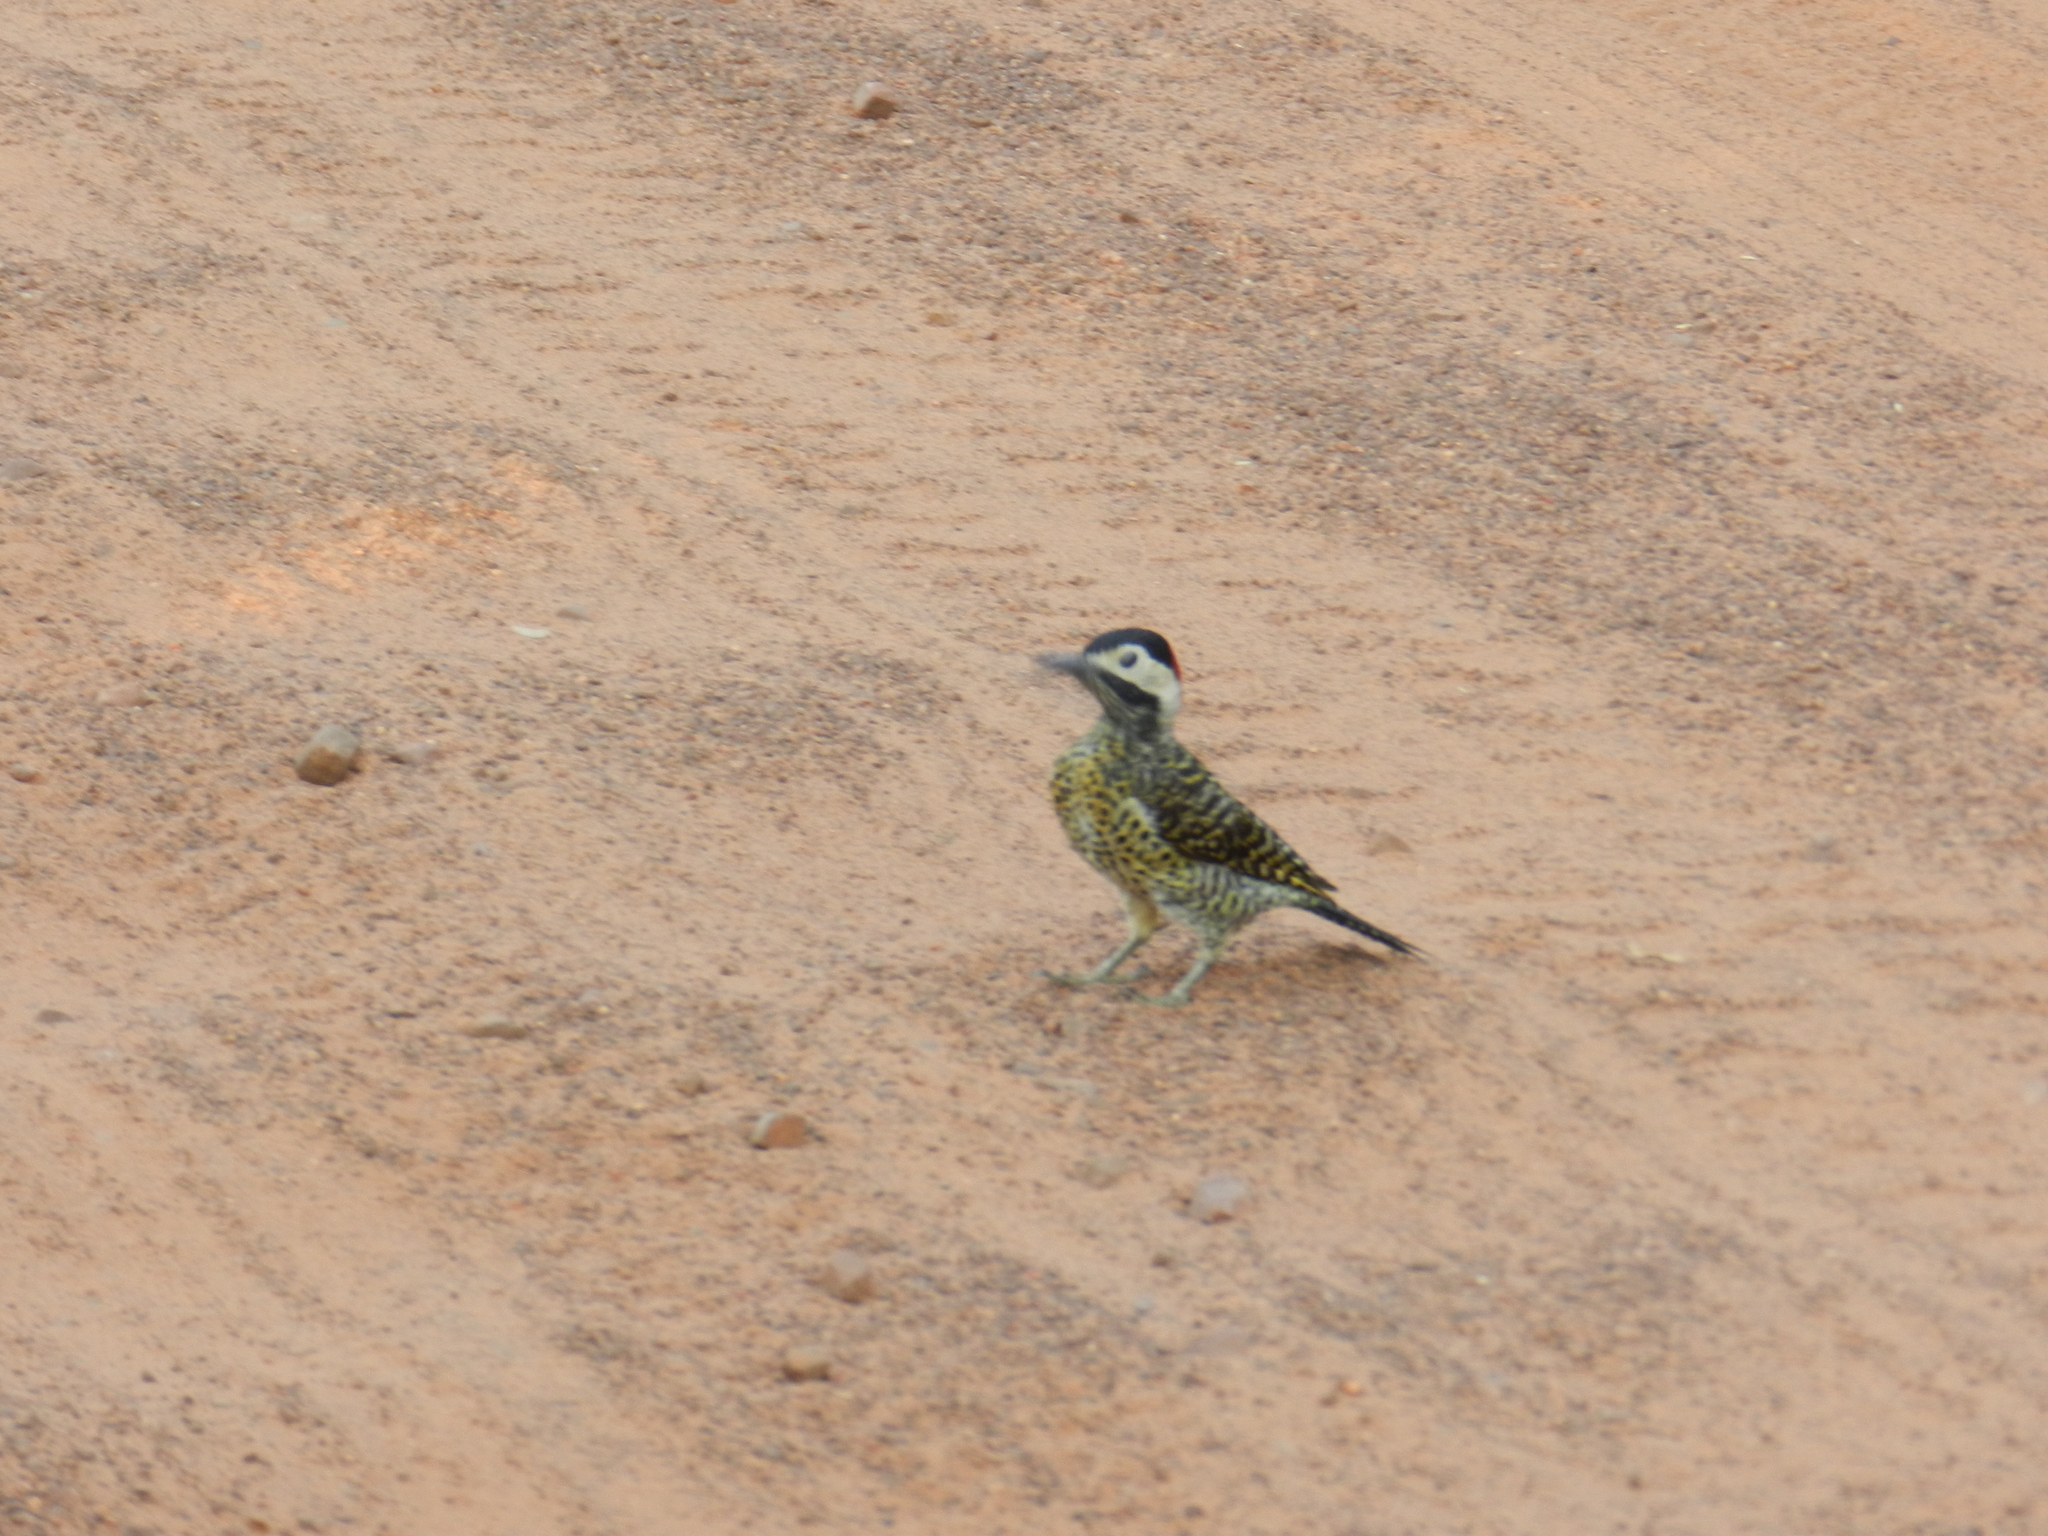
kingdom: Animalia
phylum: Chordata
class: Aves
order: Piciformes
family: Picidae
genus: Colaptes
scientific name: Colaptes melanochloros
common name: Green-barred woodpecker
